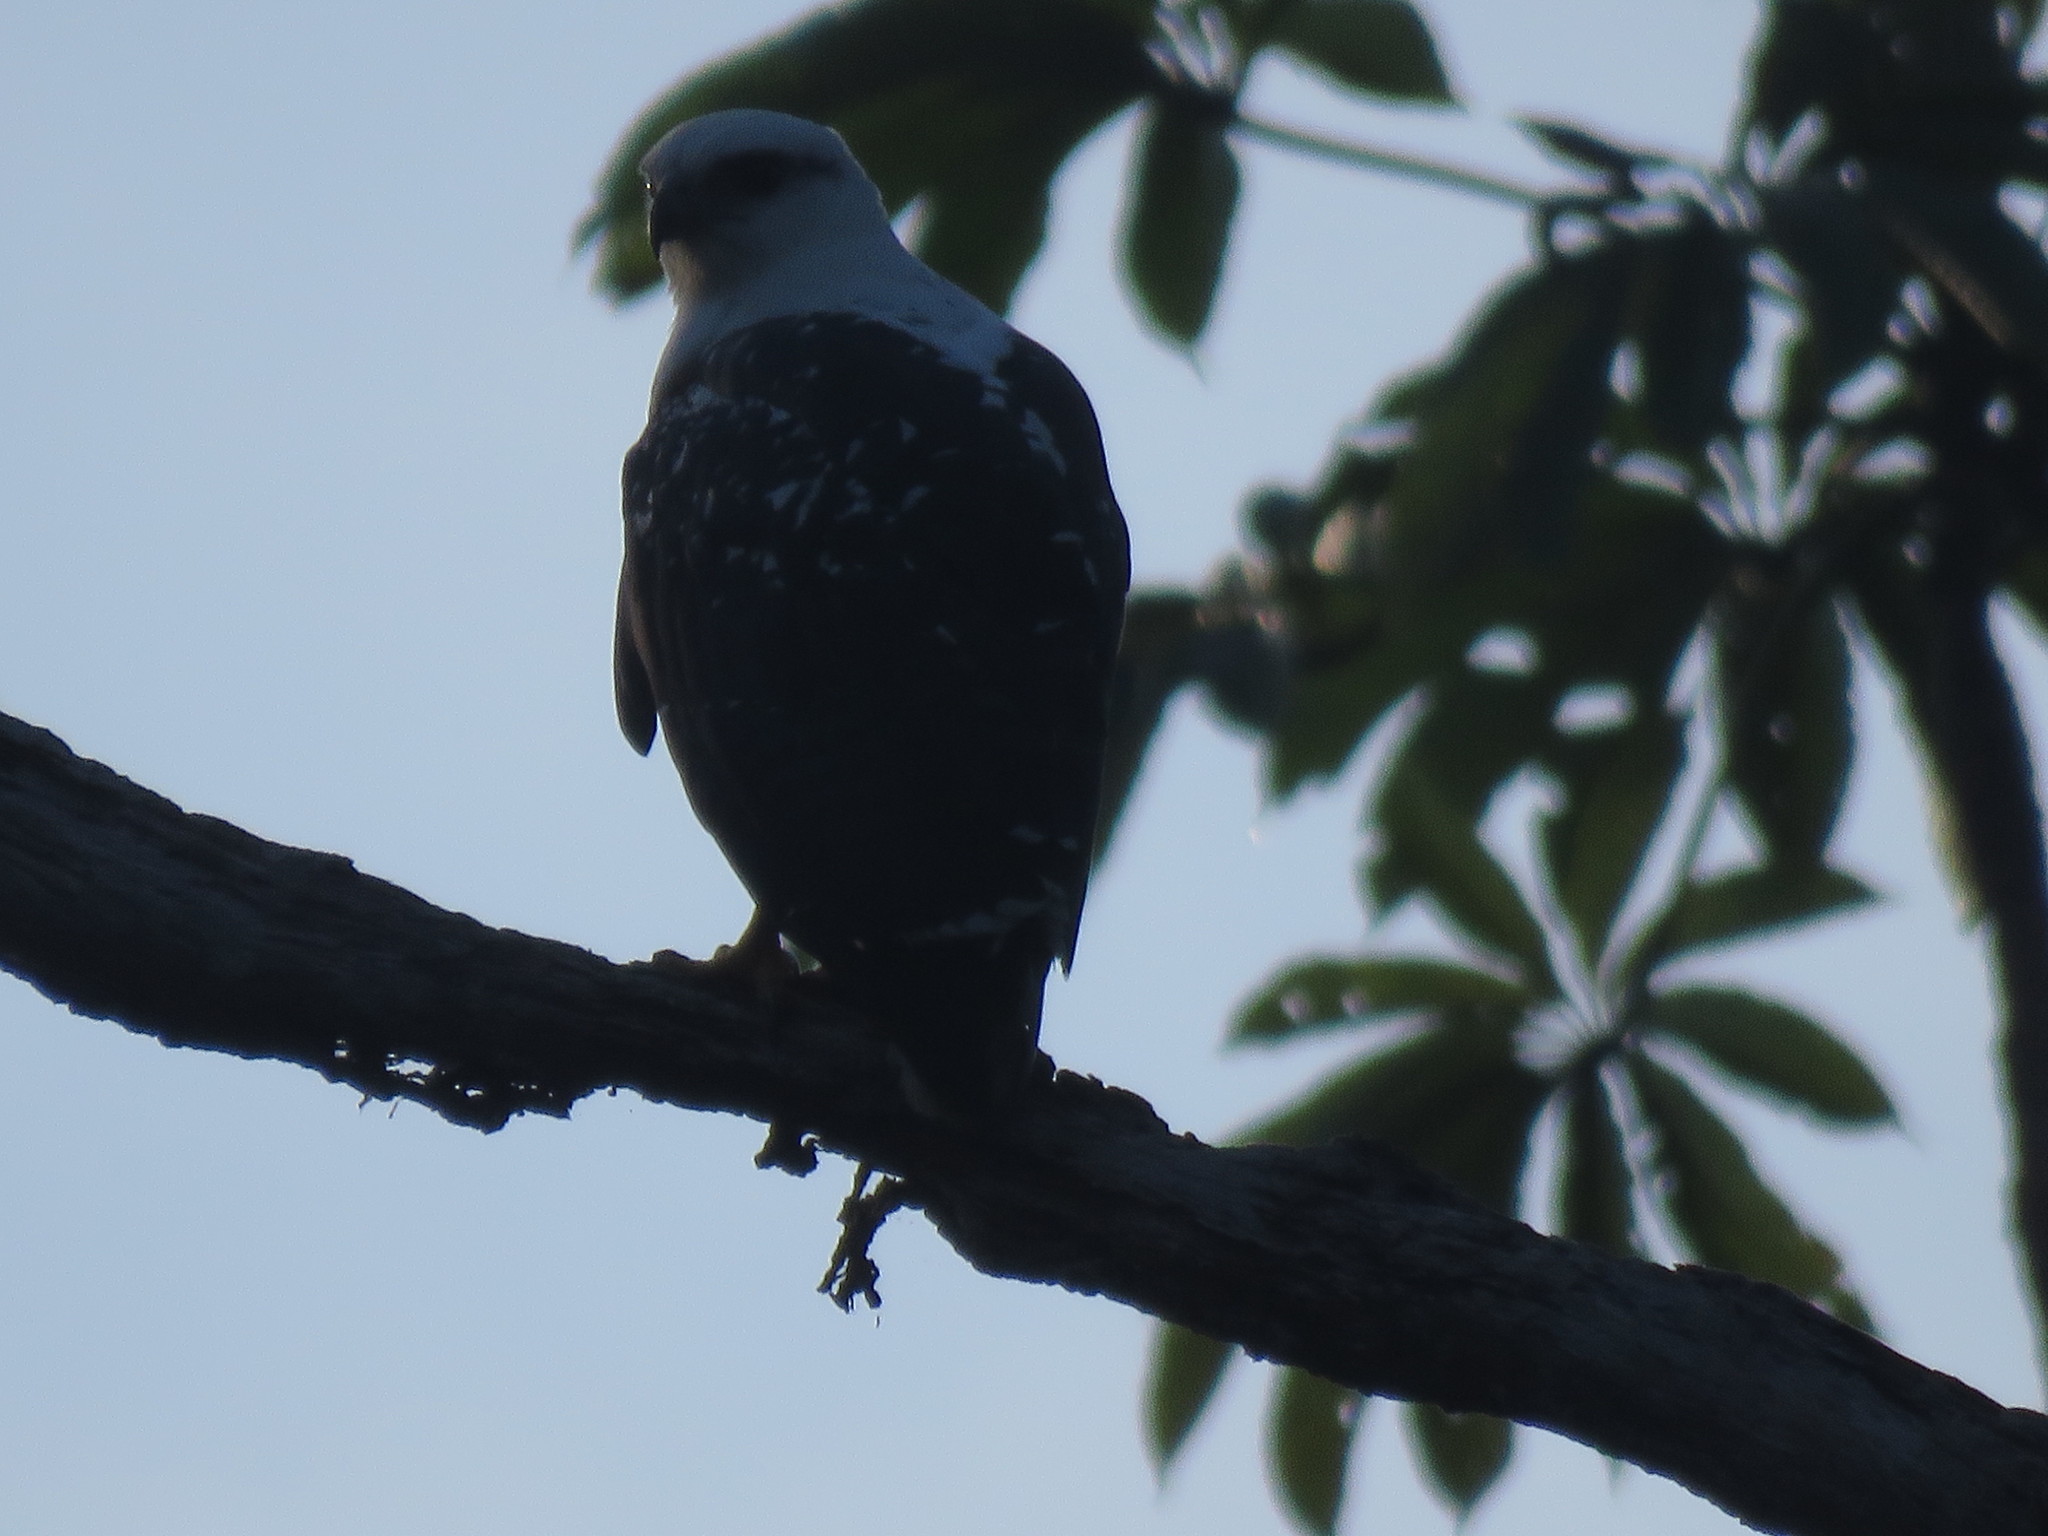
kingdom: Animalia
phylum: Chordata
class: Aves
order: Accipitriformes
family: Accipitridae
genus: Leucopternis
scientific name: Leucopternis albicollis
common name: White hawk
